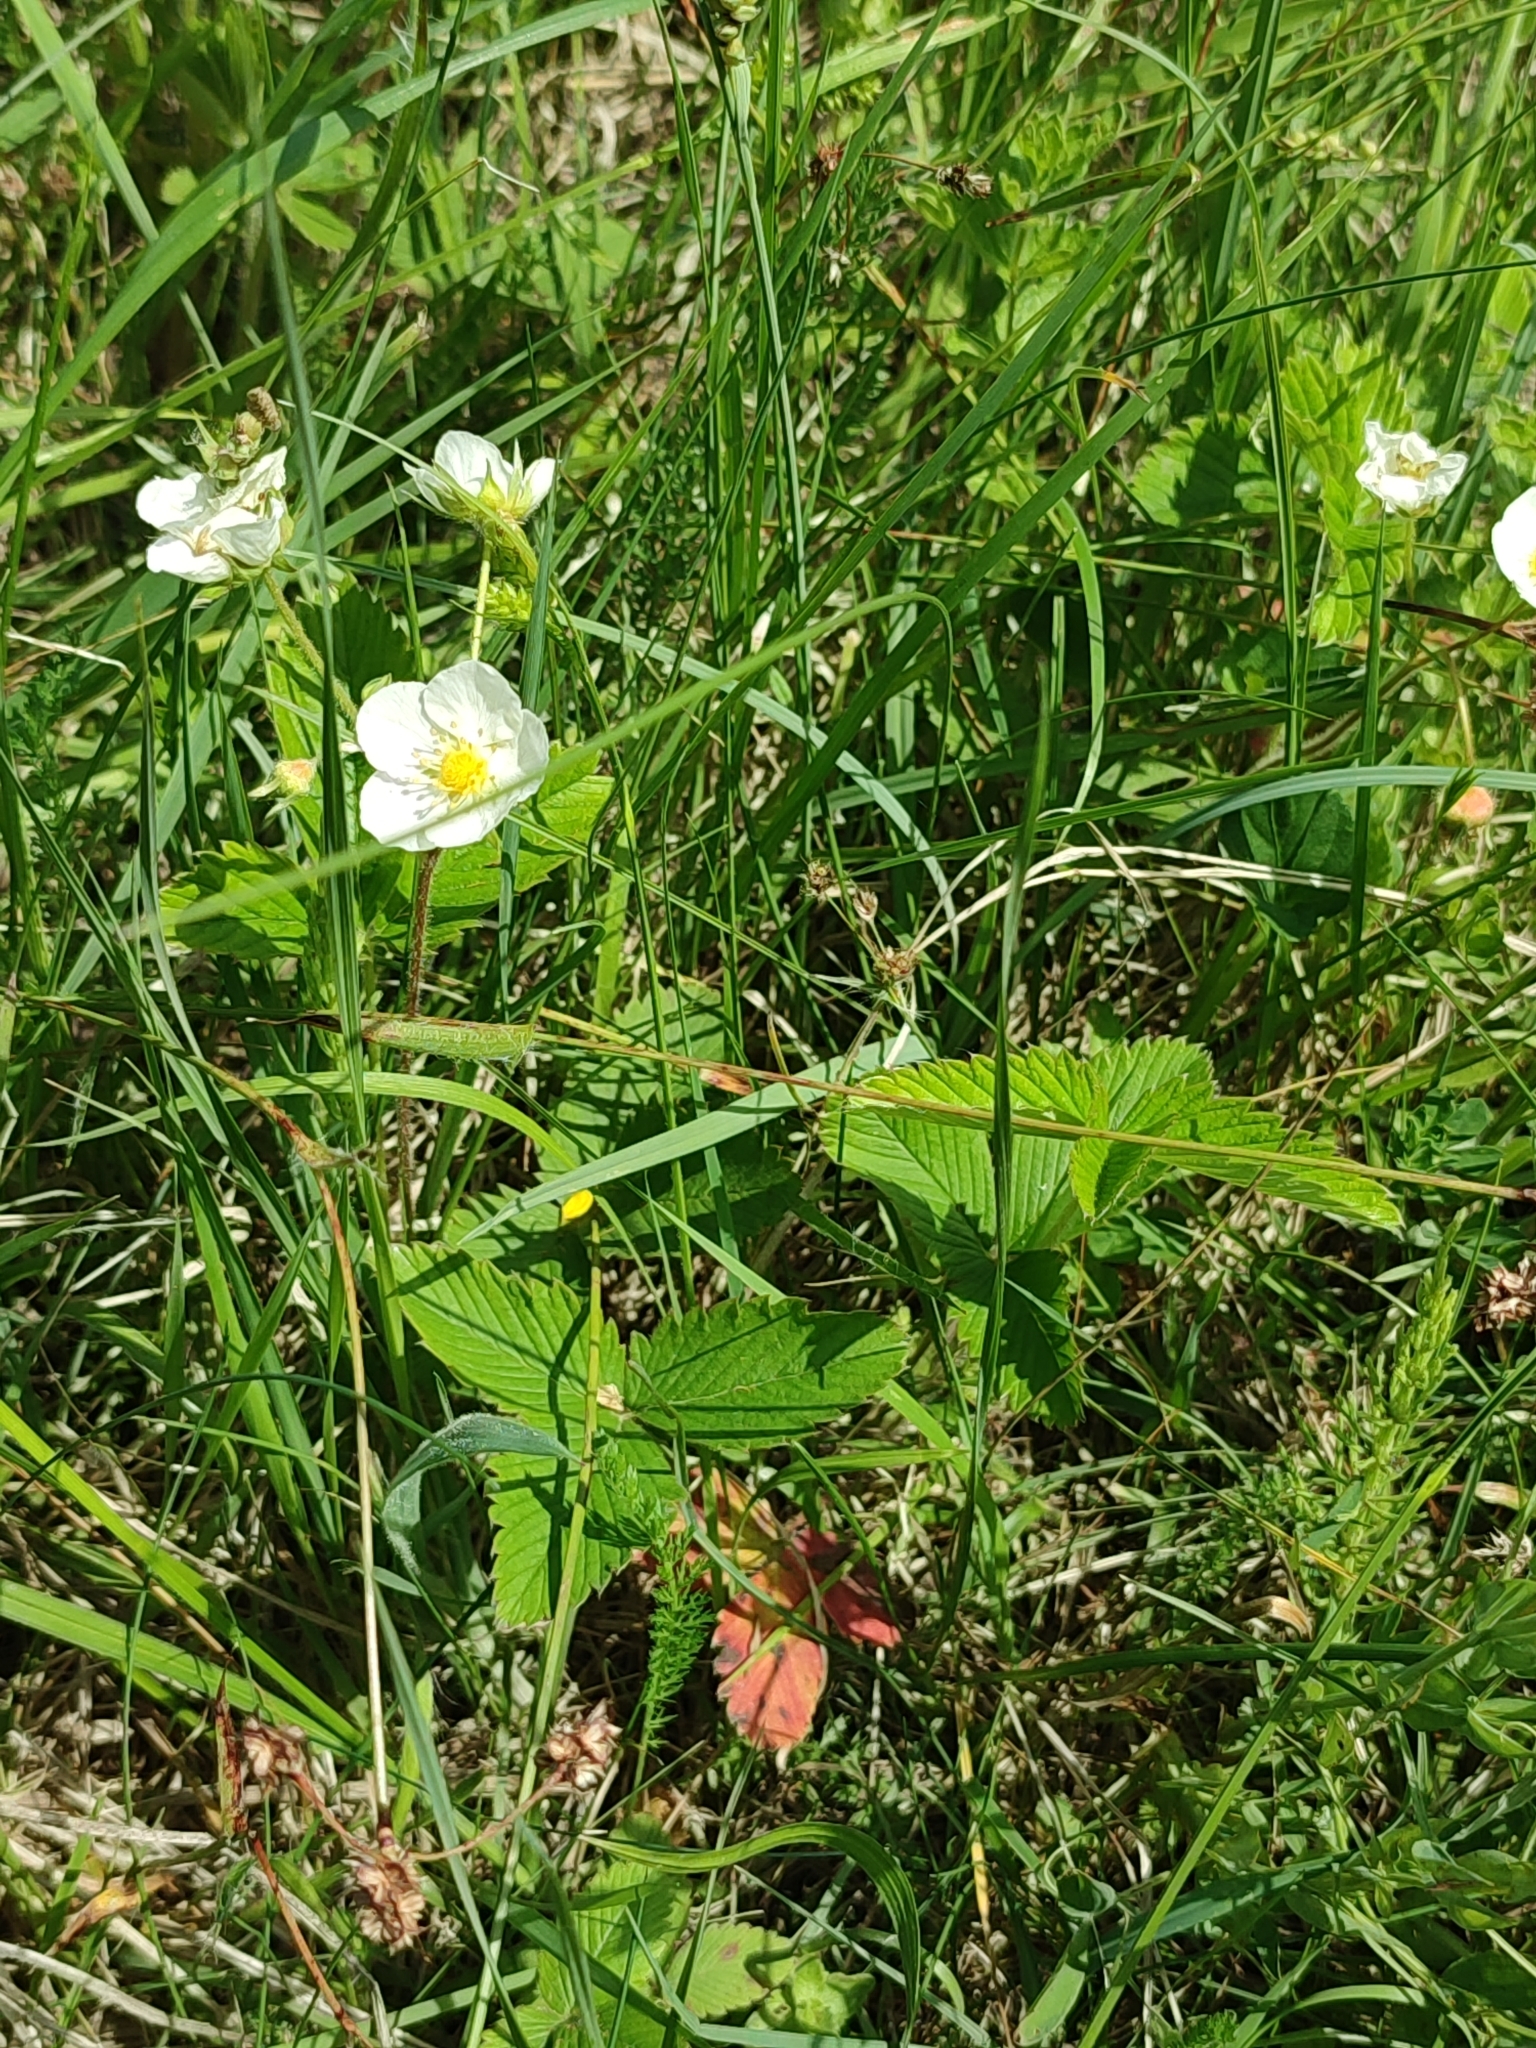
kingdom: Plantae
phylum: Tracheophyta
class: Magnoliopsida
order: Rosales
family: Rosaceae
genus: Fragaria
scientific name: Fragaria viridis
